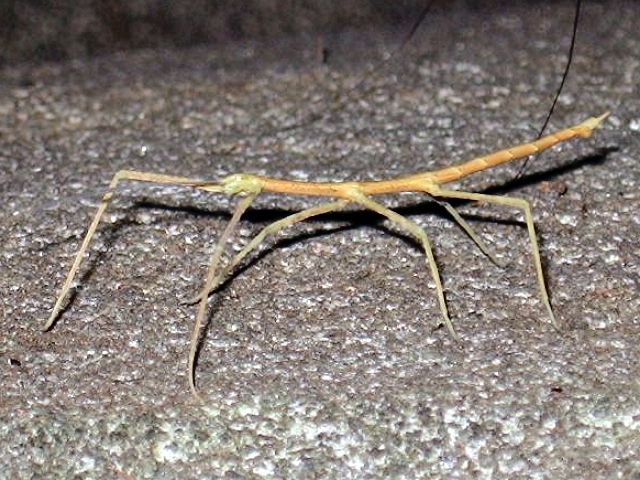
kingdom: Animalia
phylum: Arthropoda
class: Insecta
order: Phasmida
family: Diapheromeridae
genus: Diapheromera
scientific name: Diapheromera femorata
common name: Common american walkingstick
